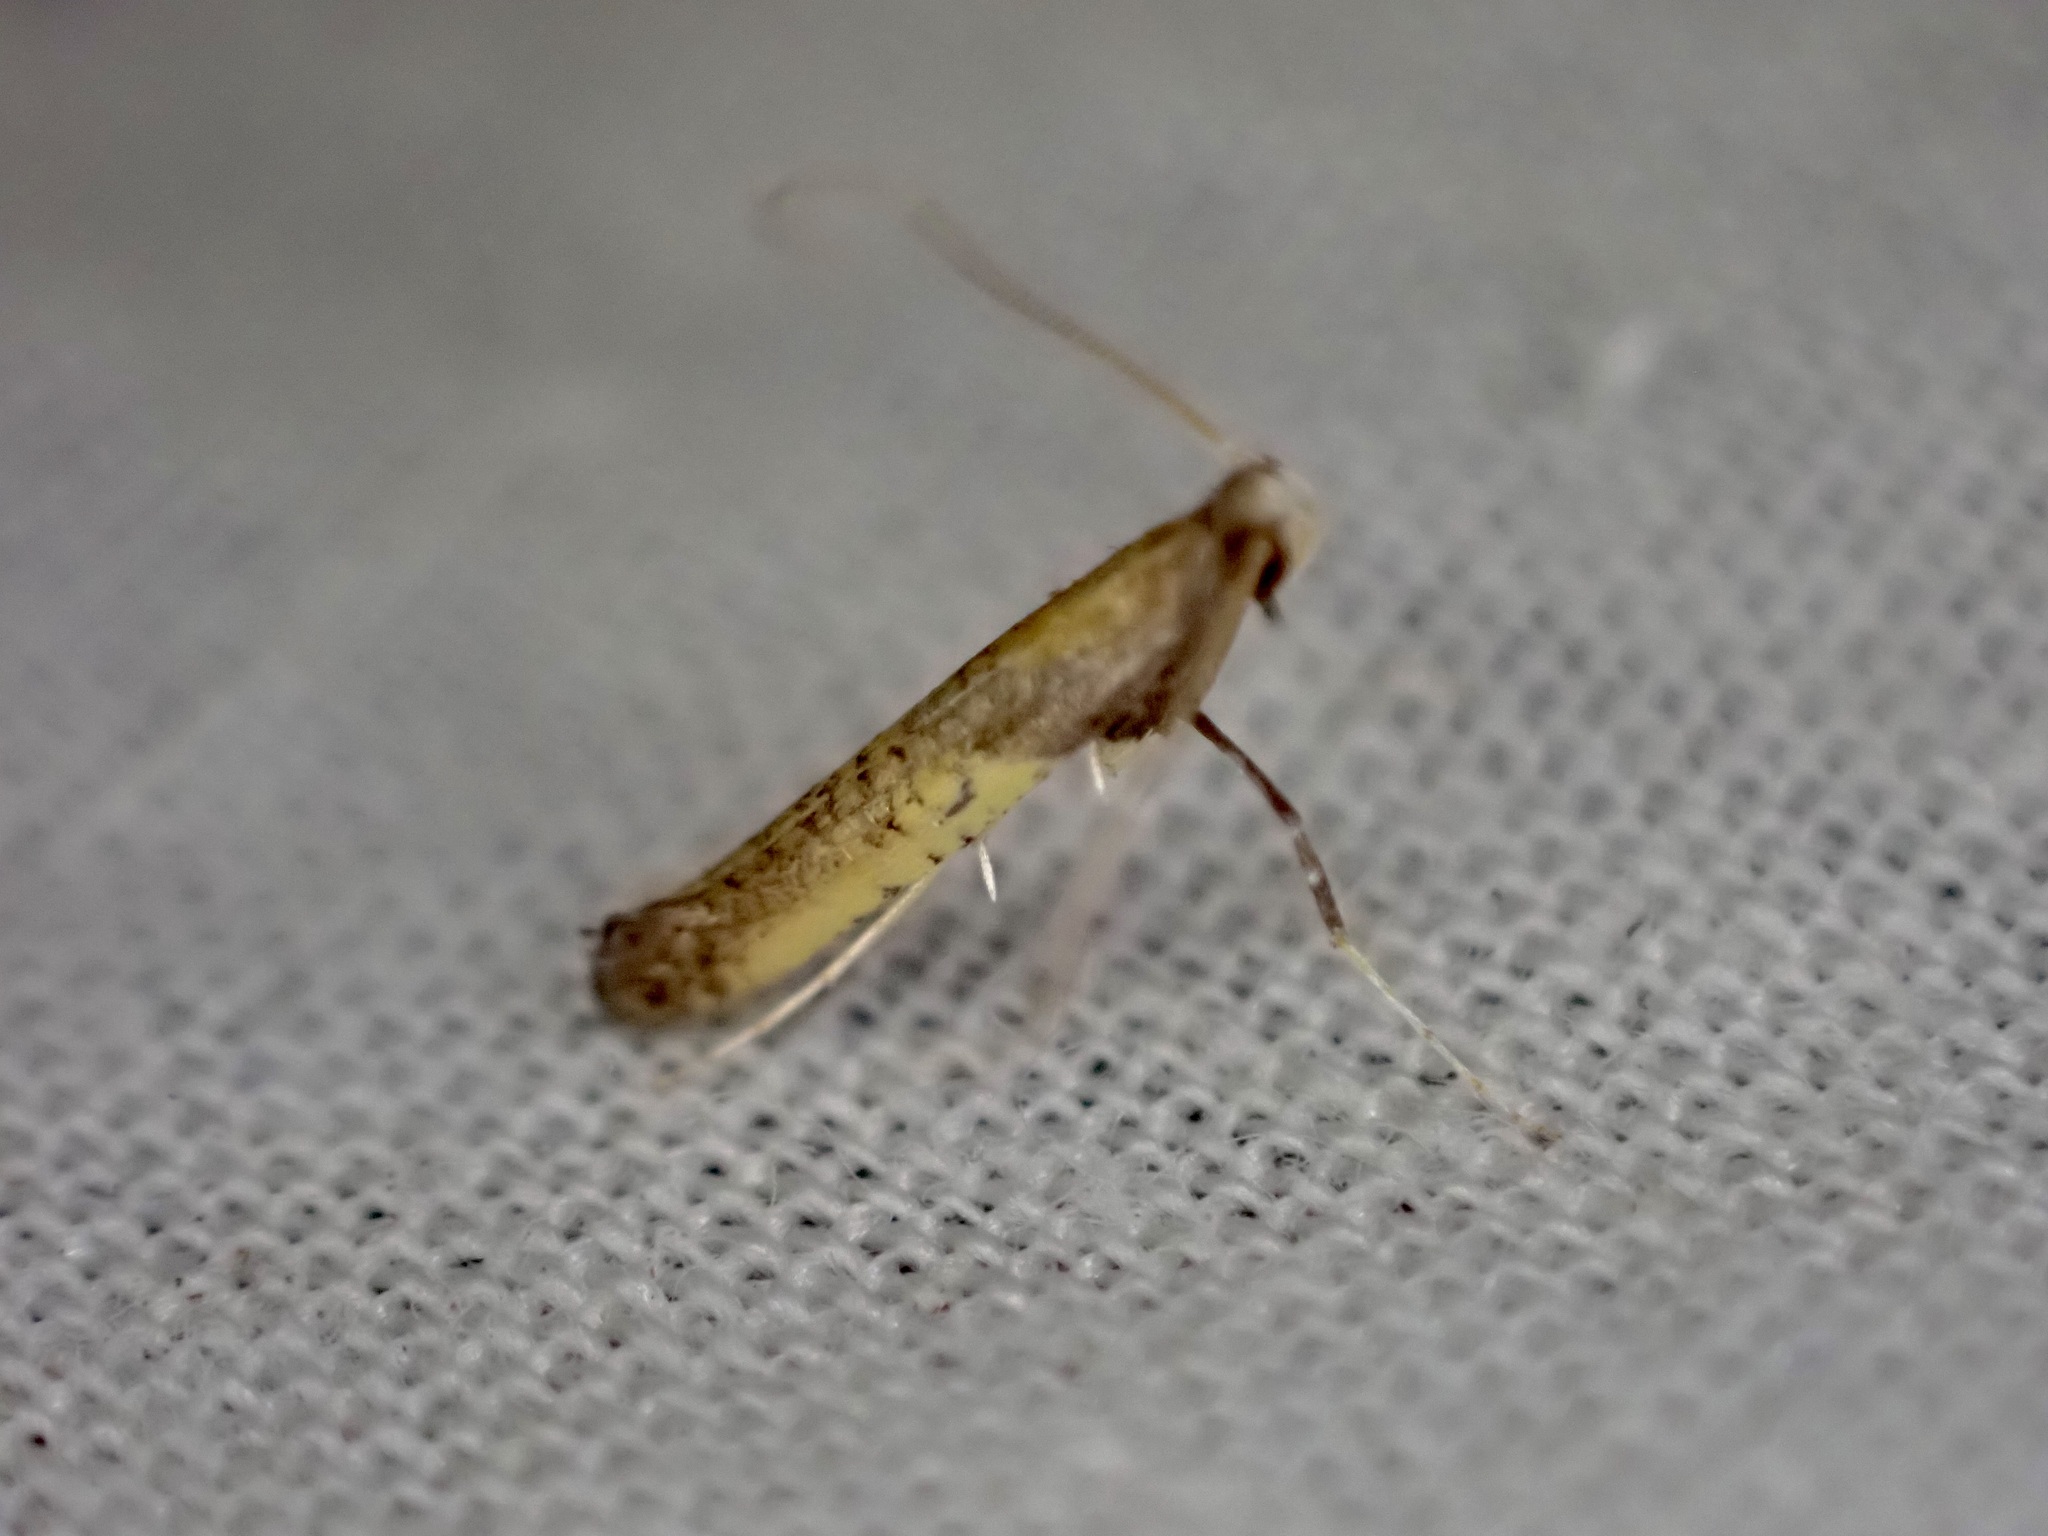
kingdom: Animalia
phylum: Arthropoda
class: Insecta
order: Lepidoptera
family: Gracillariidae
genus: Caloptilia
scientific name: Caloptilia azaleella
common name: Azalea leafminer
